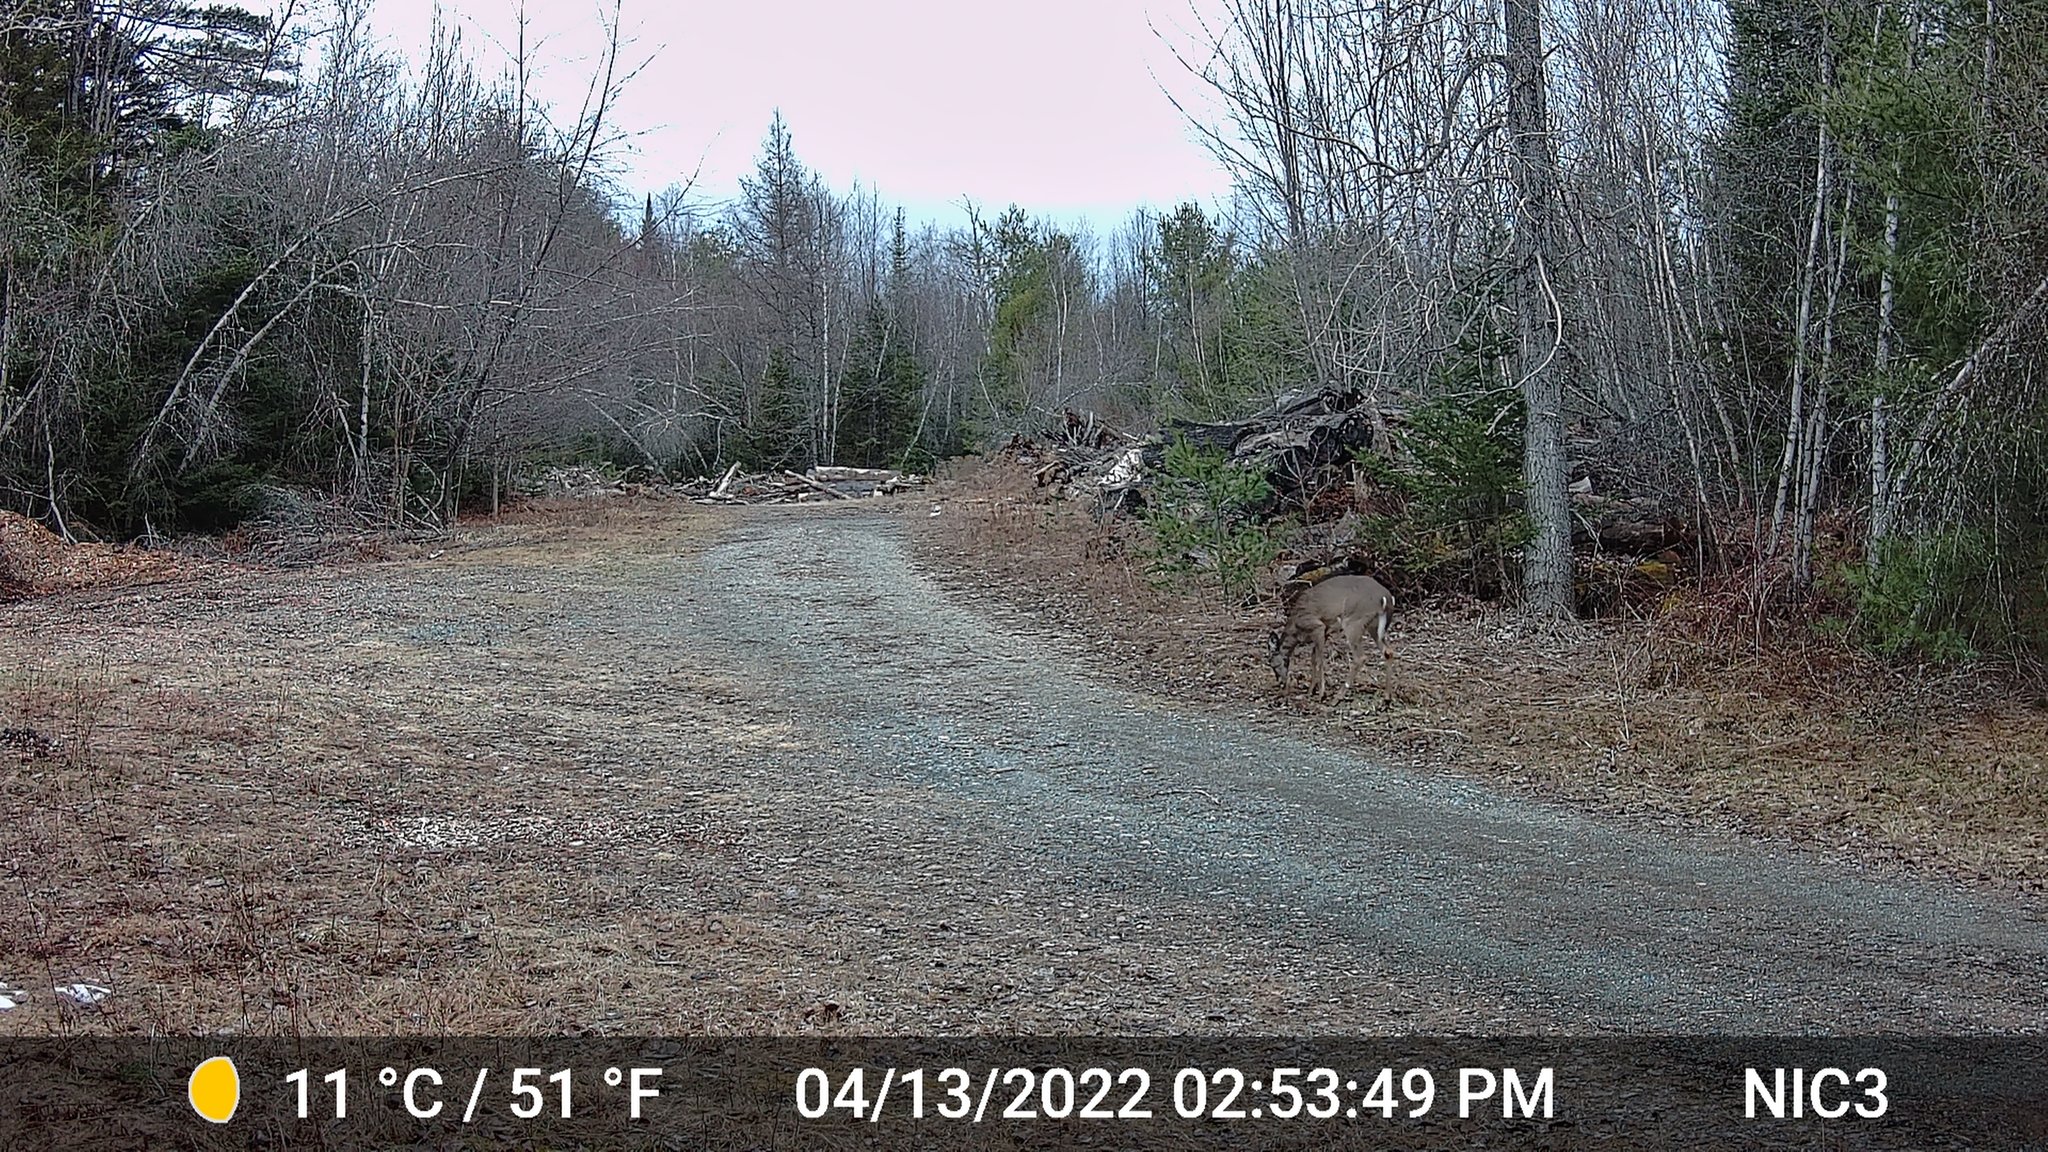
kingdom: Animalia
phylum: Chordata
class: Mammalia
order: Artiodactyla
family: Cervidae
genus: Odocoileus
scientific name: Odocoileus virginianus
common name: White-tailed deer
